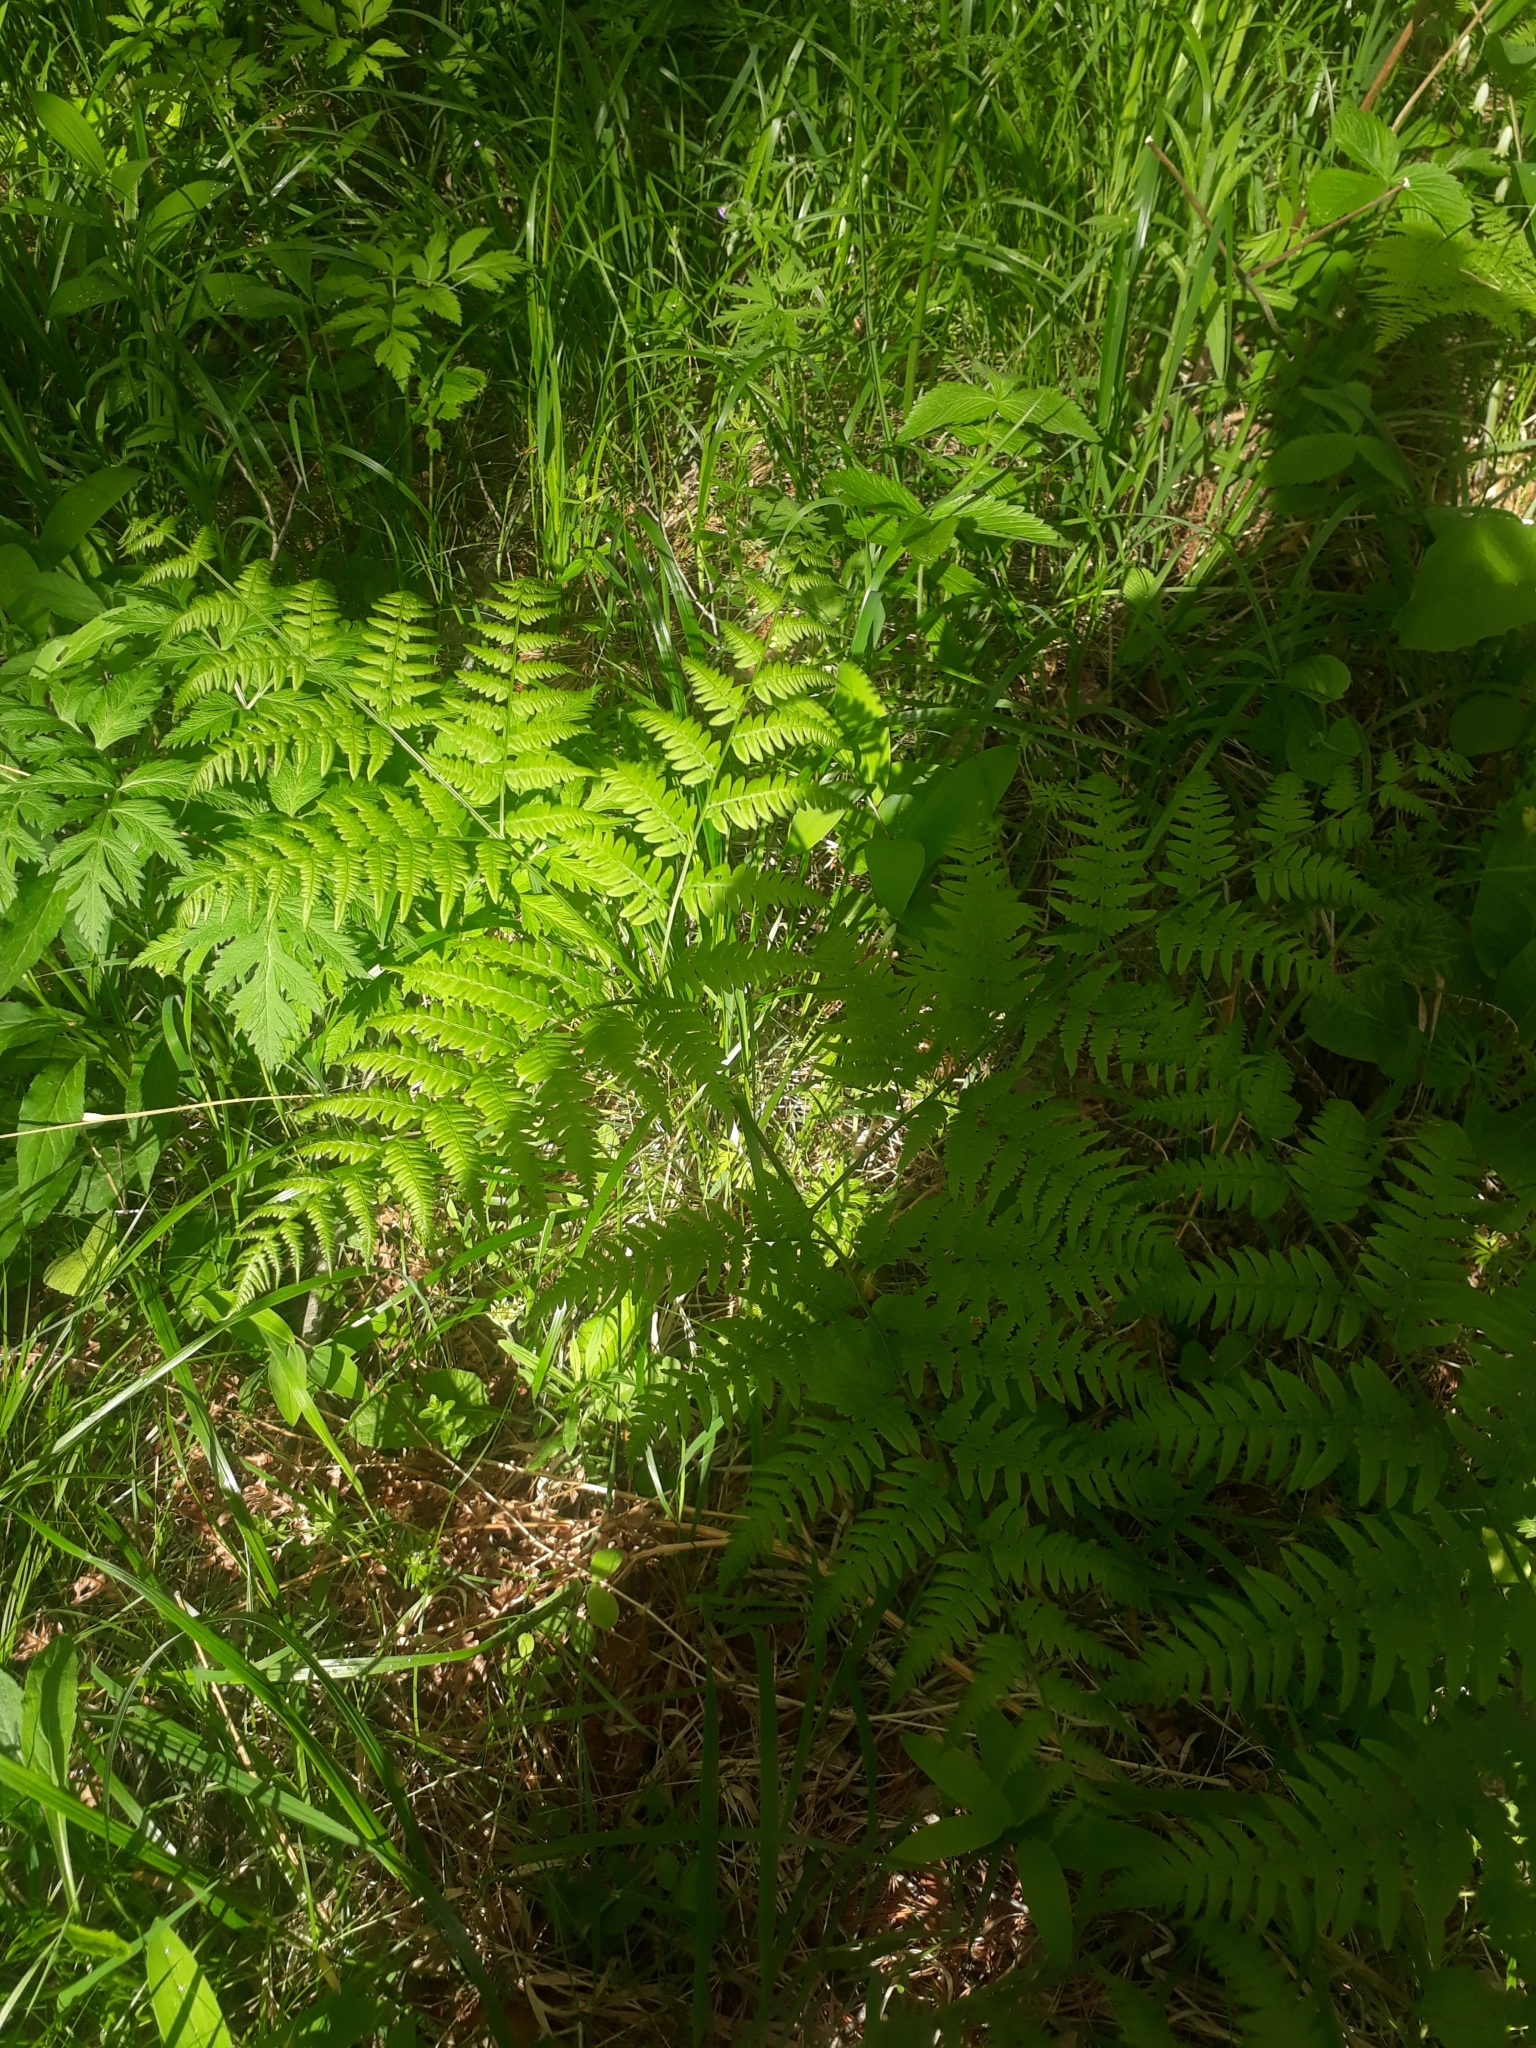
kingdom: Plantae
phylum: Tracheophyta
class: Polypodiopsida
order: Polypodiales
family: Dennstaedtiaceae
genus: Pteridium
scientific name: Pteridium aquilinum
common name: Bracken
